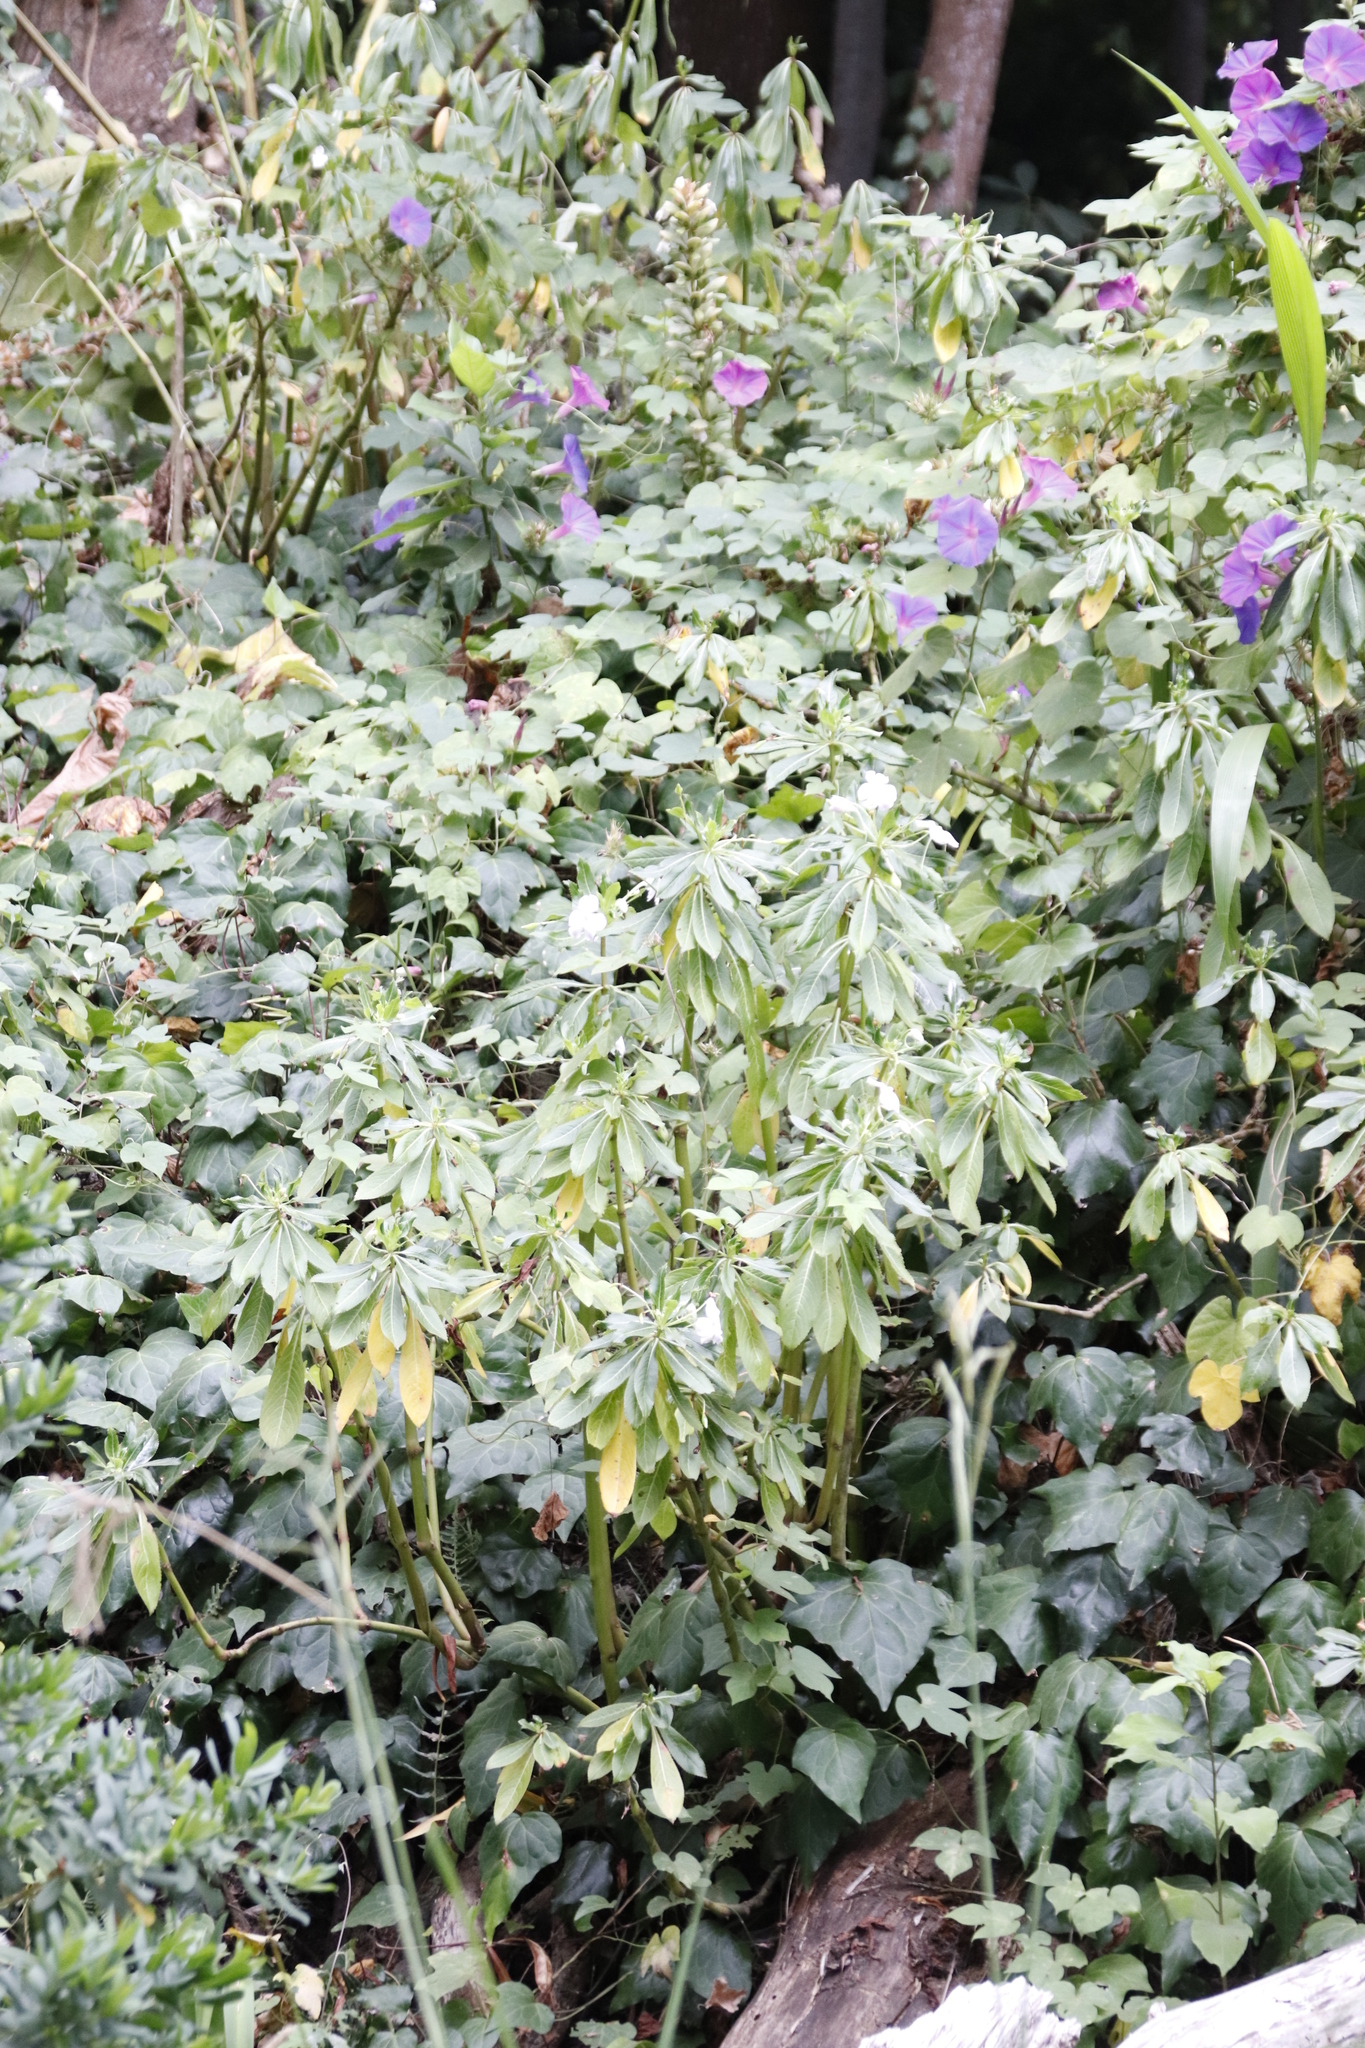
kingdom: Plantae
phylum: Tracheophyta
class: Magnoliopsida
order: Ericales
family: Balsaminaceae
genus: Impatiens
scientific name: Impatiens sodenii
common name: Oliver's touch-me-not
